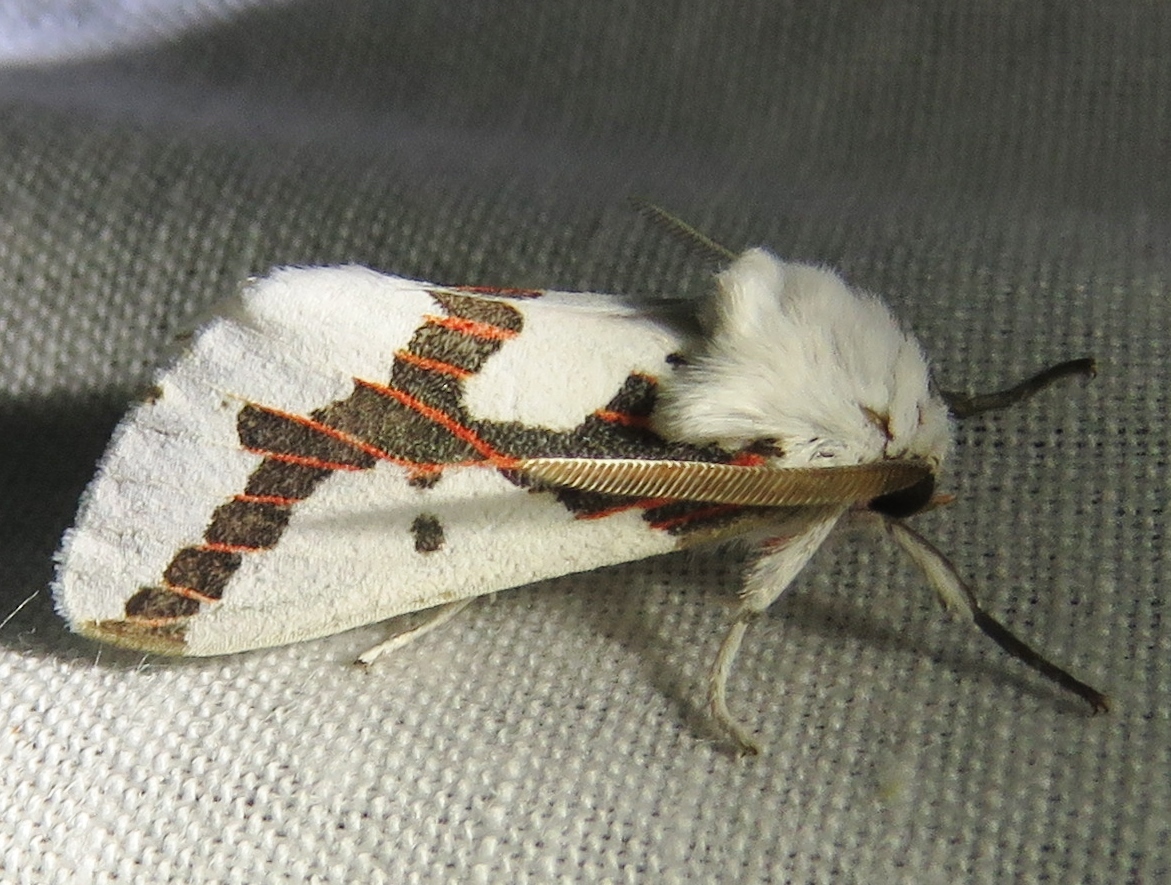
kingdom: Animalia
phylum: Arthropoda
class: Insecta
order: Lepidoptera
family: Erebidae
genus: Euerythra
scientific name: Euerythra phasma
